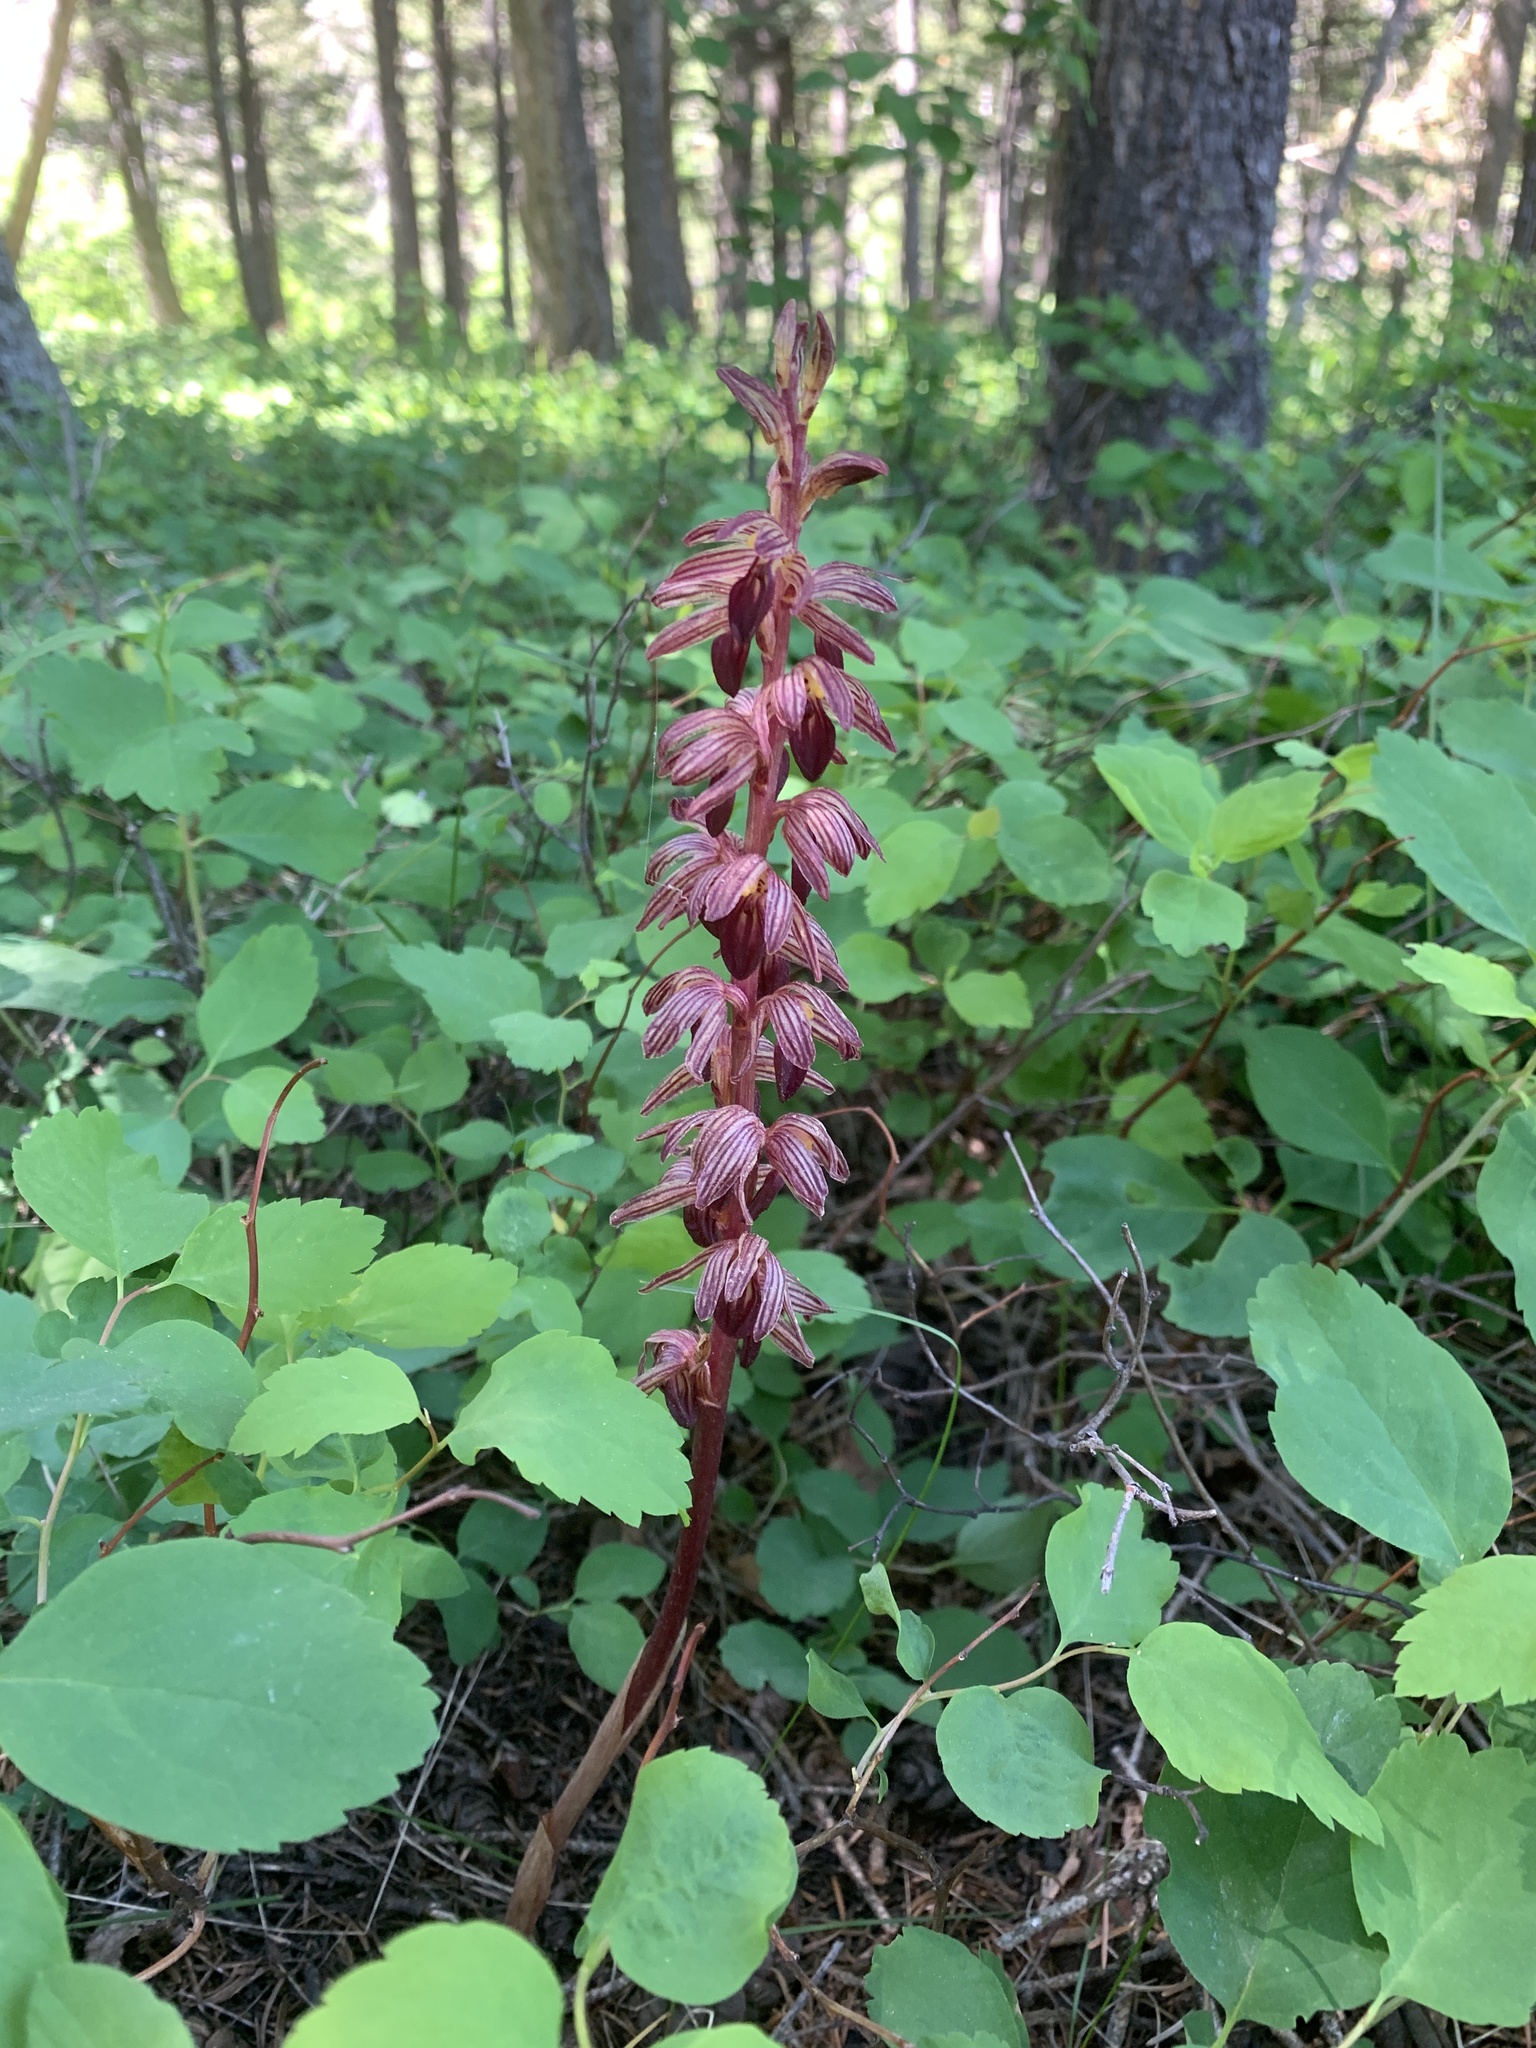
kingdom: Plantae
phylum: Tracheophyta
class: Liliopsida
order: Asparagales
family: Orchidaceae
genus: Corallorhiza
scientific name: Corallorhiza striata
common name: Hooded coralroot
